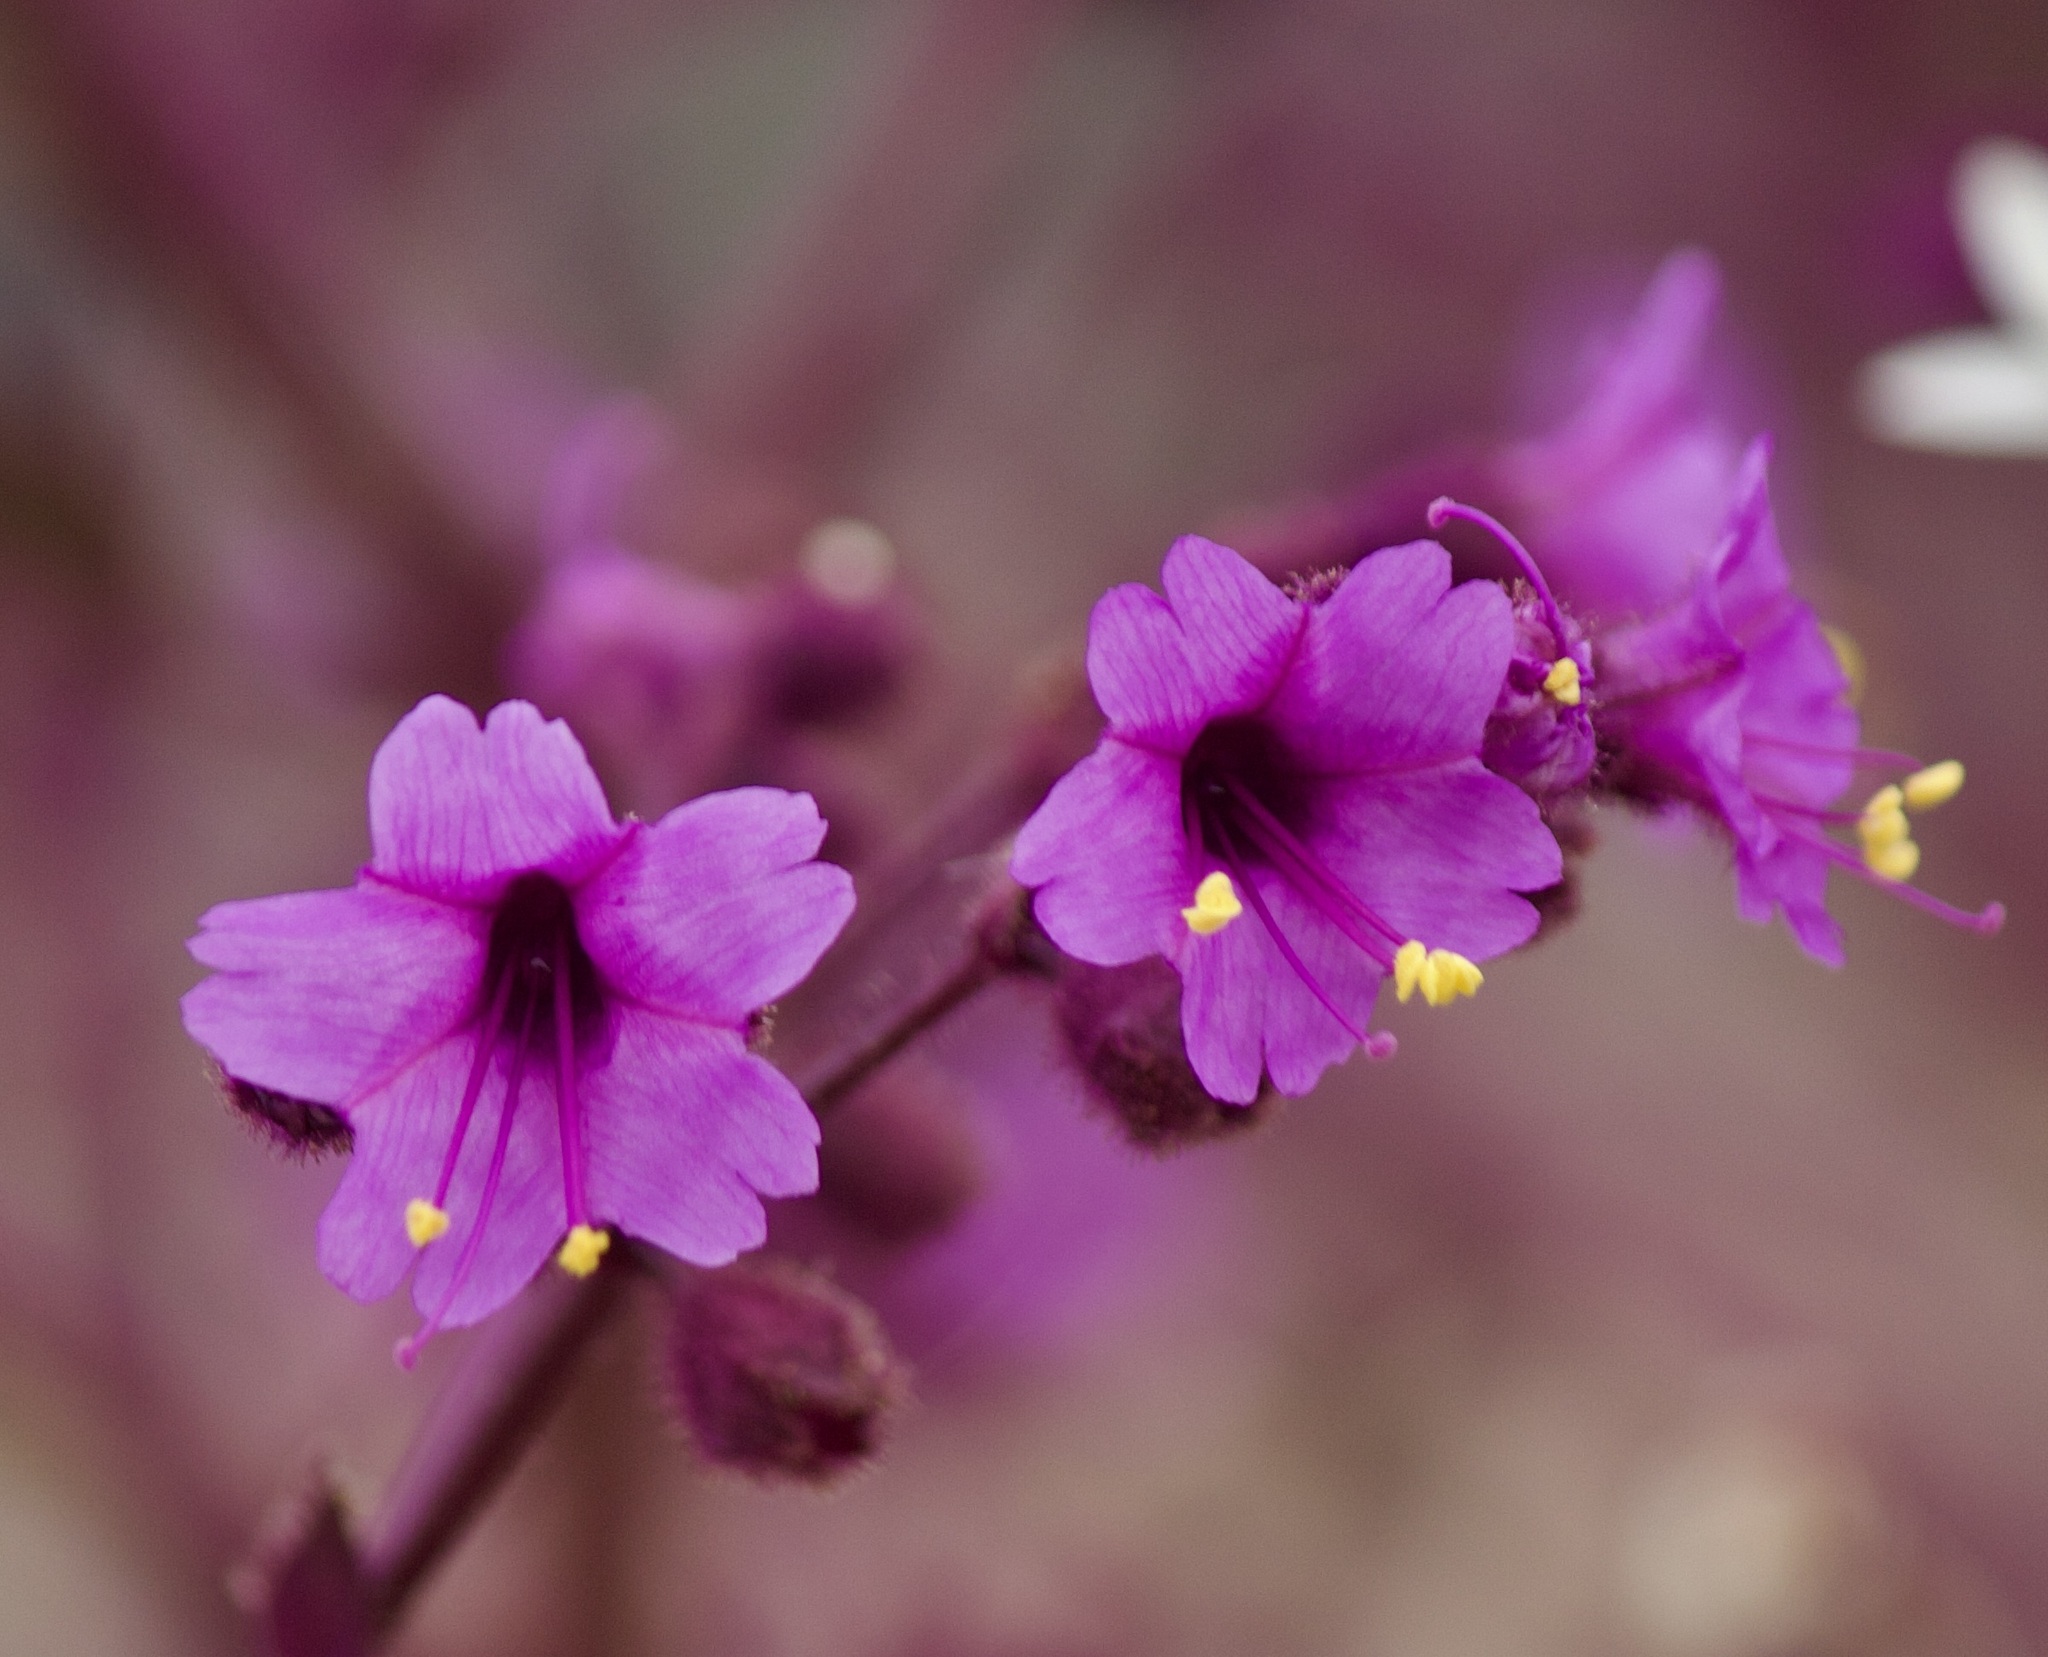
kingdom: Plantae
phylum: Tracheophyta
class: Magnoliopsida
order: Caryophyllales
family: Nyctaginaceae
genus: Mirabilis
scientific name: Mirabilis elegans
